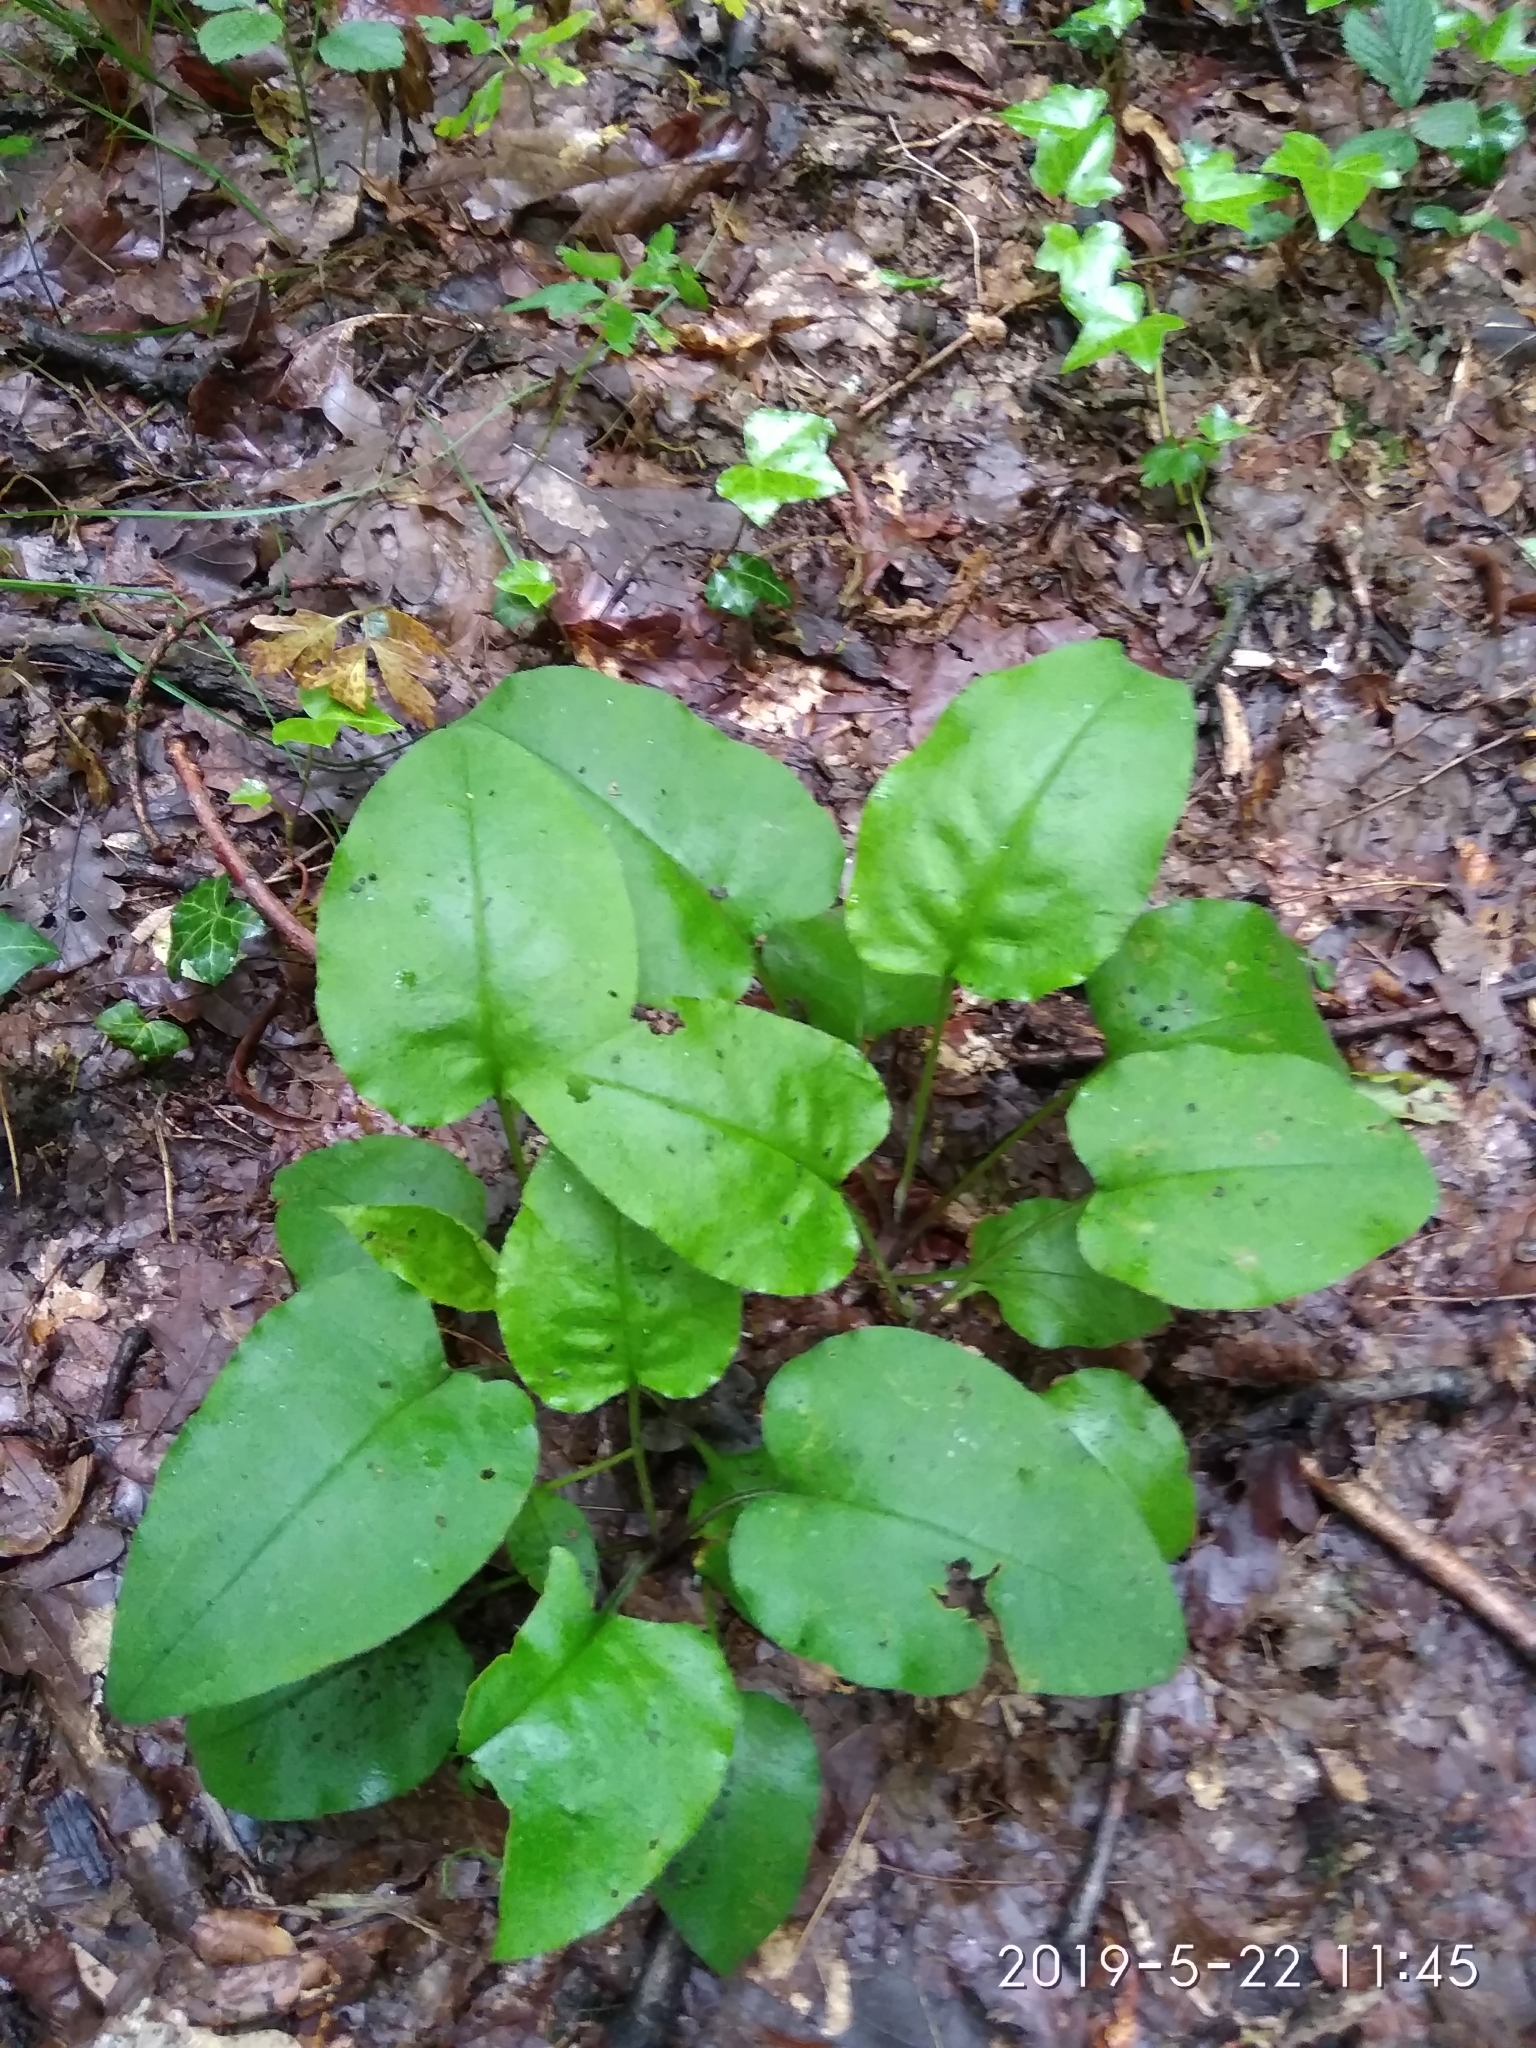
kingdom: Plantae
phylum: Tracheophyta
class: Magnoliopsida
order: Boraginales
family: Boraginaceae
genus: Pulmonaria
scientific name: Pulmonaria obscura
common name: Suffolk lungwort
